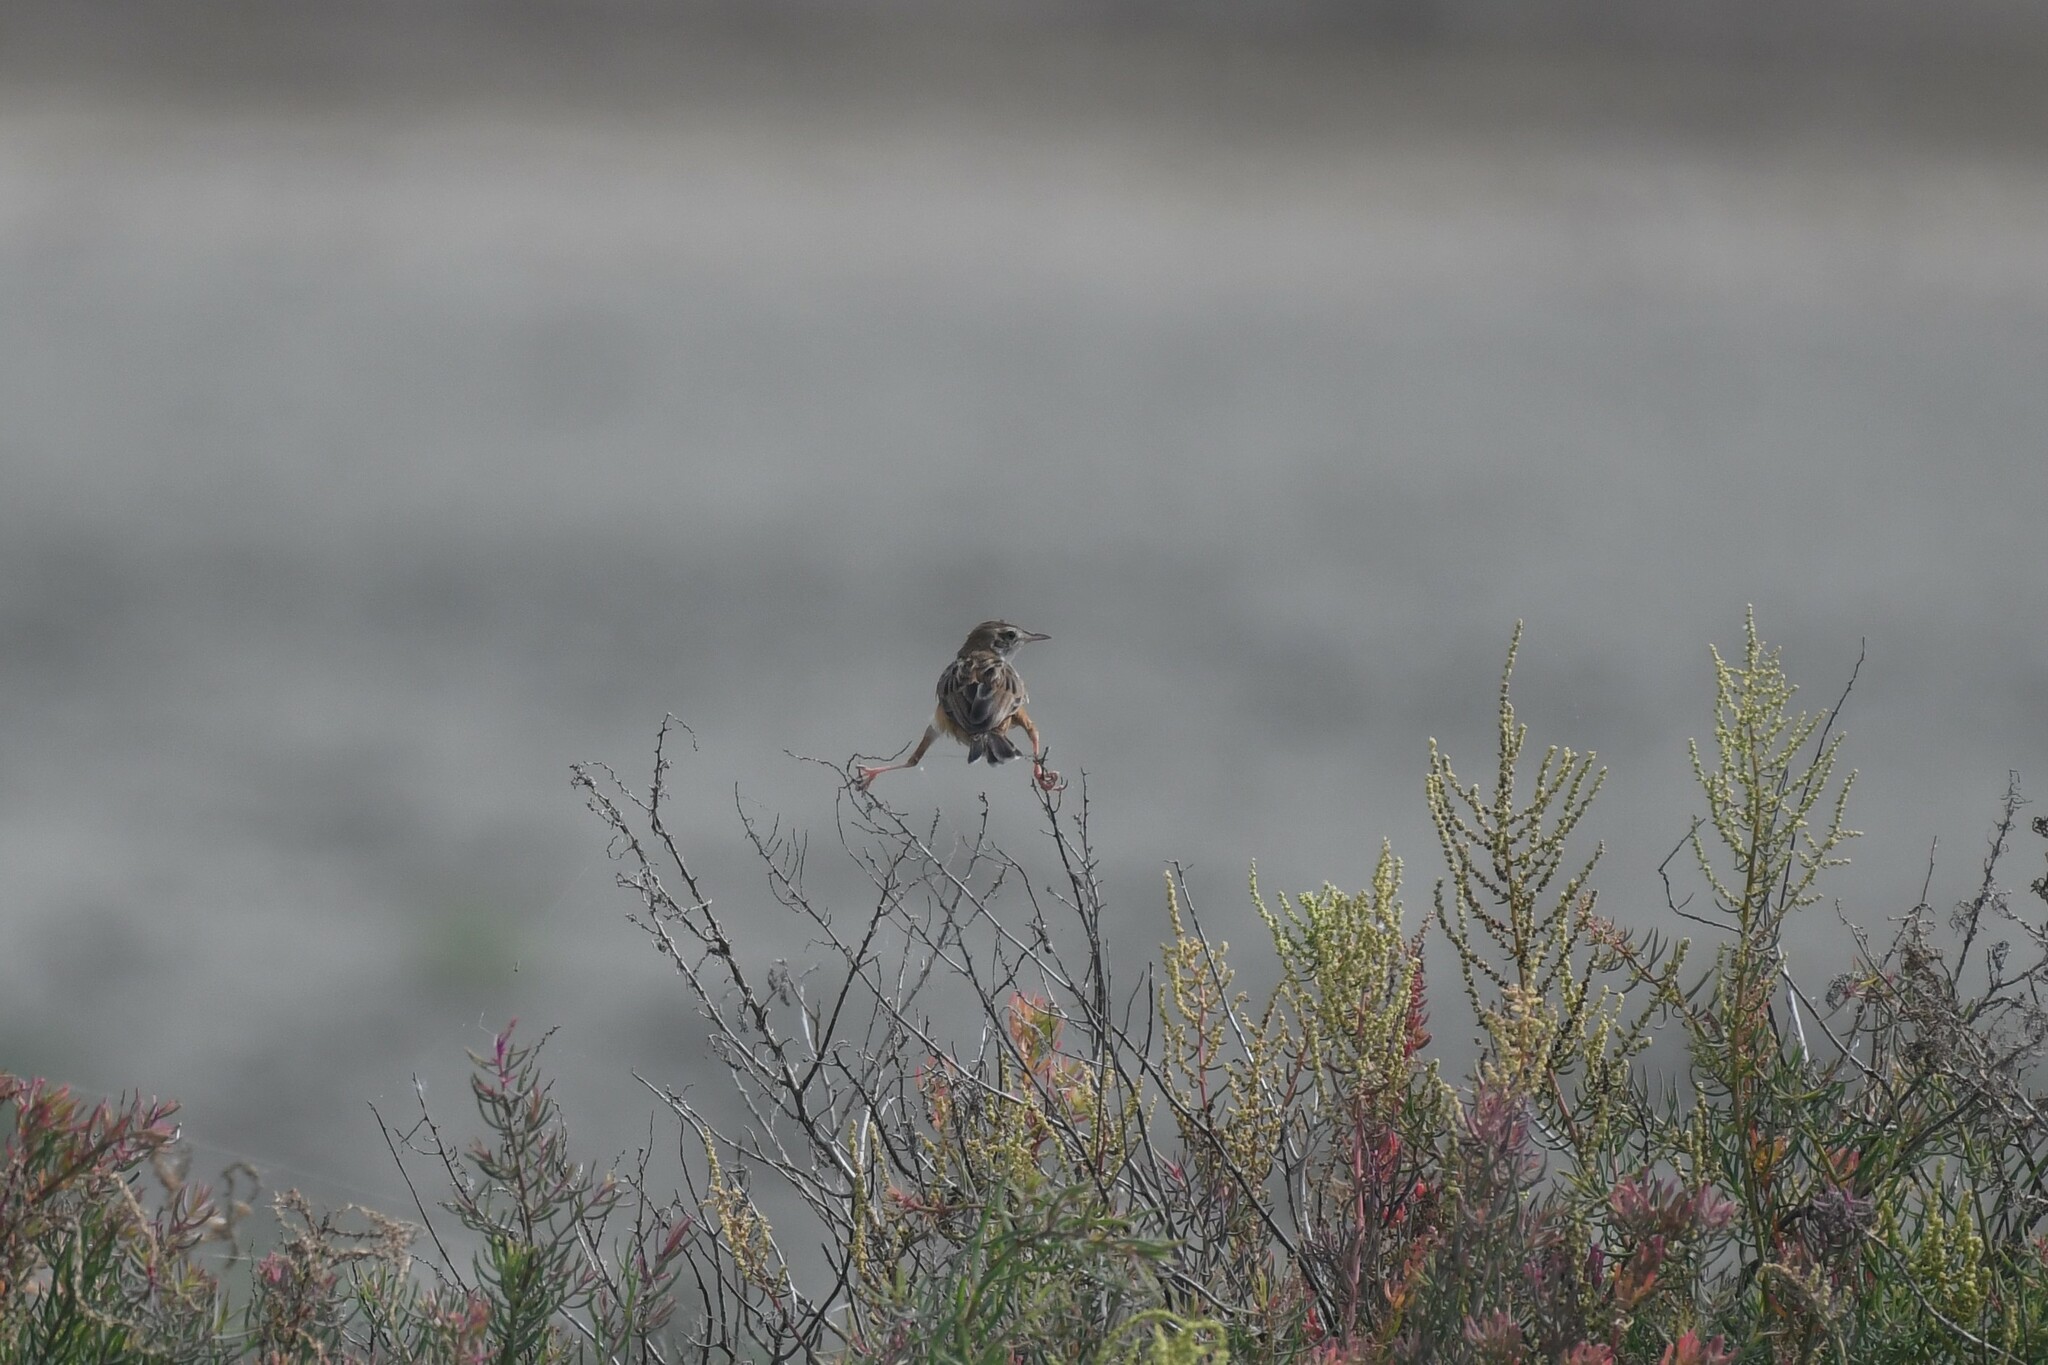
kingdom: Animalia
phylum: Chordata
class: Aves
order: Passeriformes
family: Cisticolidae
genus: Cisticola
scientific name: Cisticola juncidis
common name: Zitting cisticola
